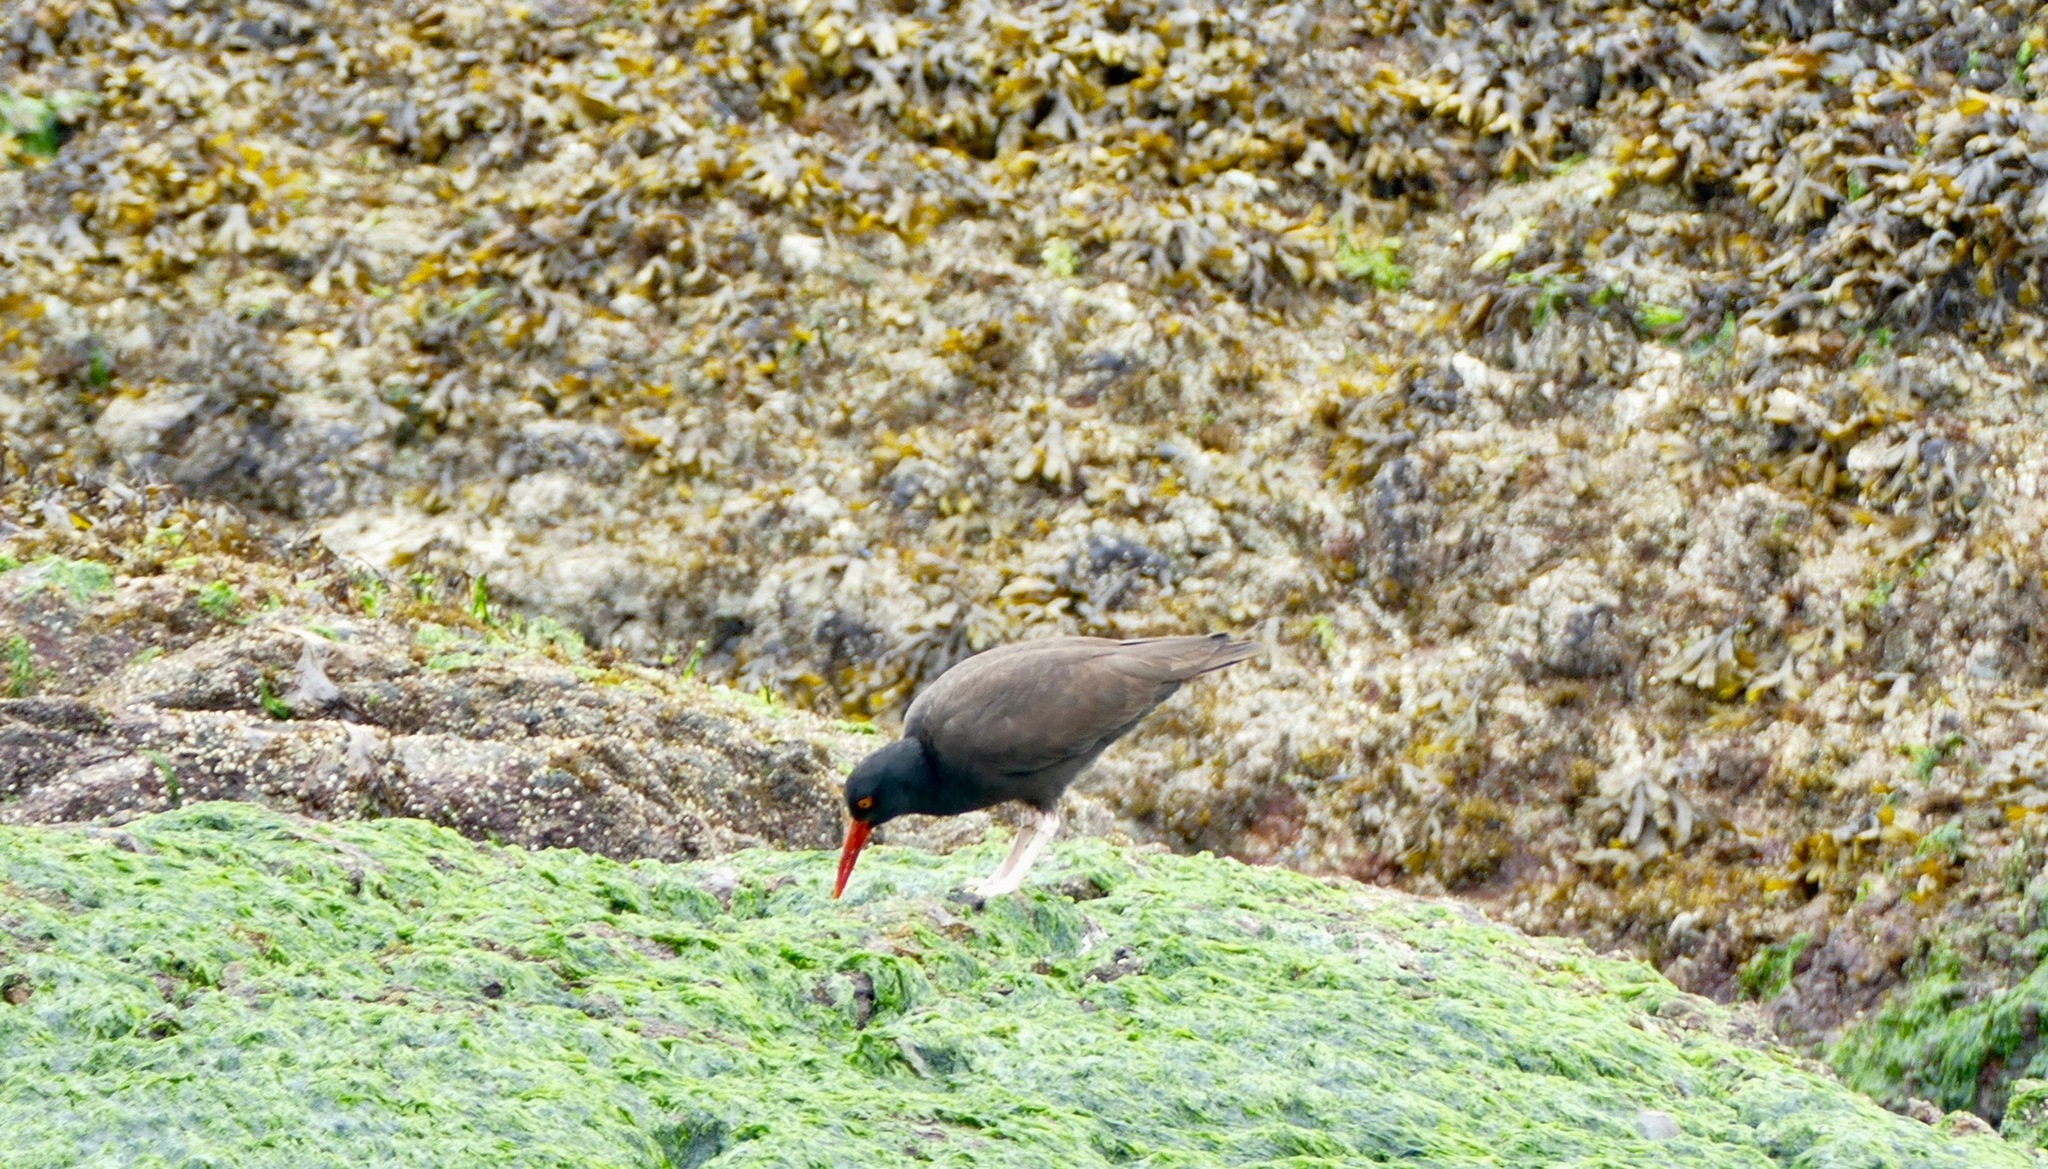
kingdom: Animalia
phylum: Chordata
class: Aves
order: Charadriiformes
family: Haematopodidae
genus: Haematopus
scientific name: Haematopus bachmani
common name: Black oystercatcher
